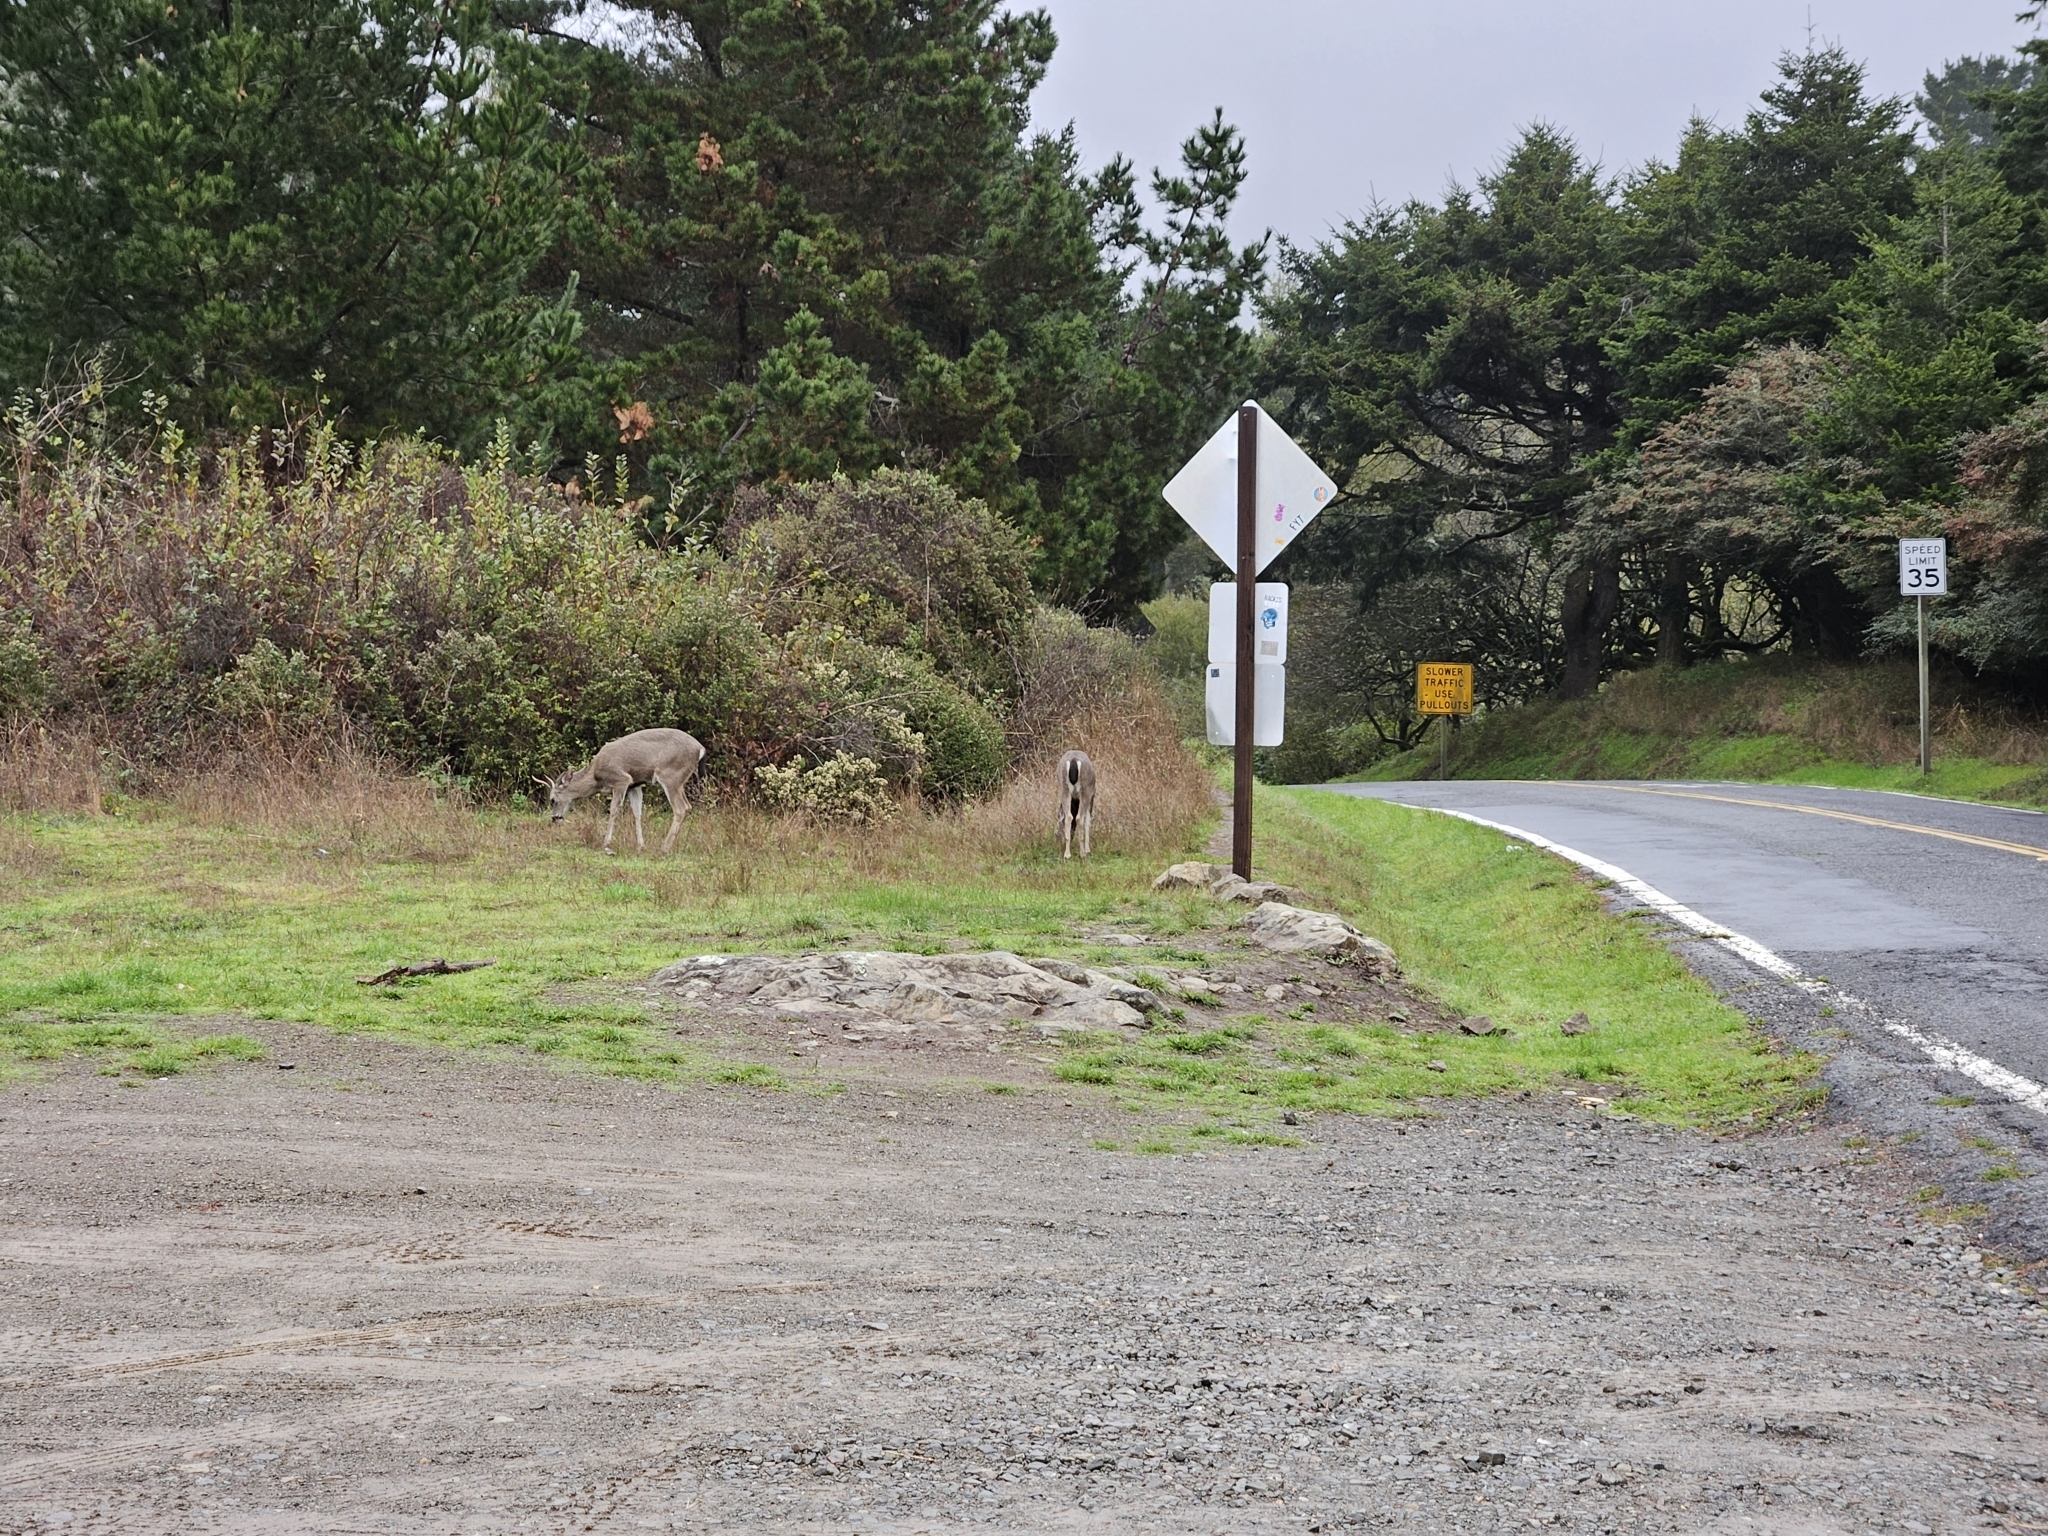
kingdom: Animalia
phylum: Chordata
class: Mammalia
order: Artiodactyla
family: Cervidae
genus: Odocoileus
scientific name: Odocoileus hemionus
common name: Mule deer
